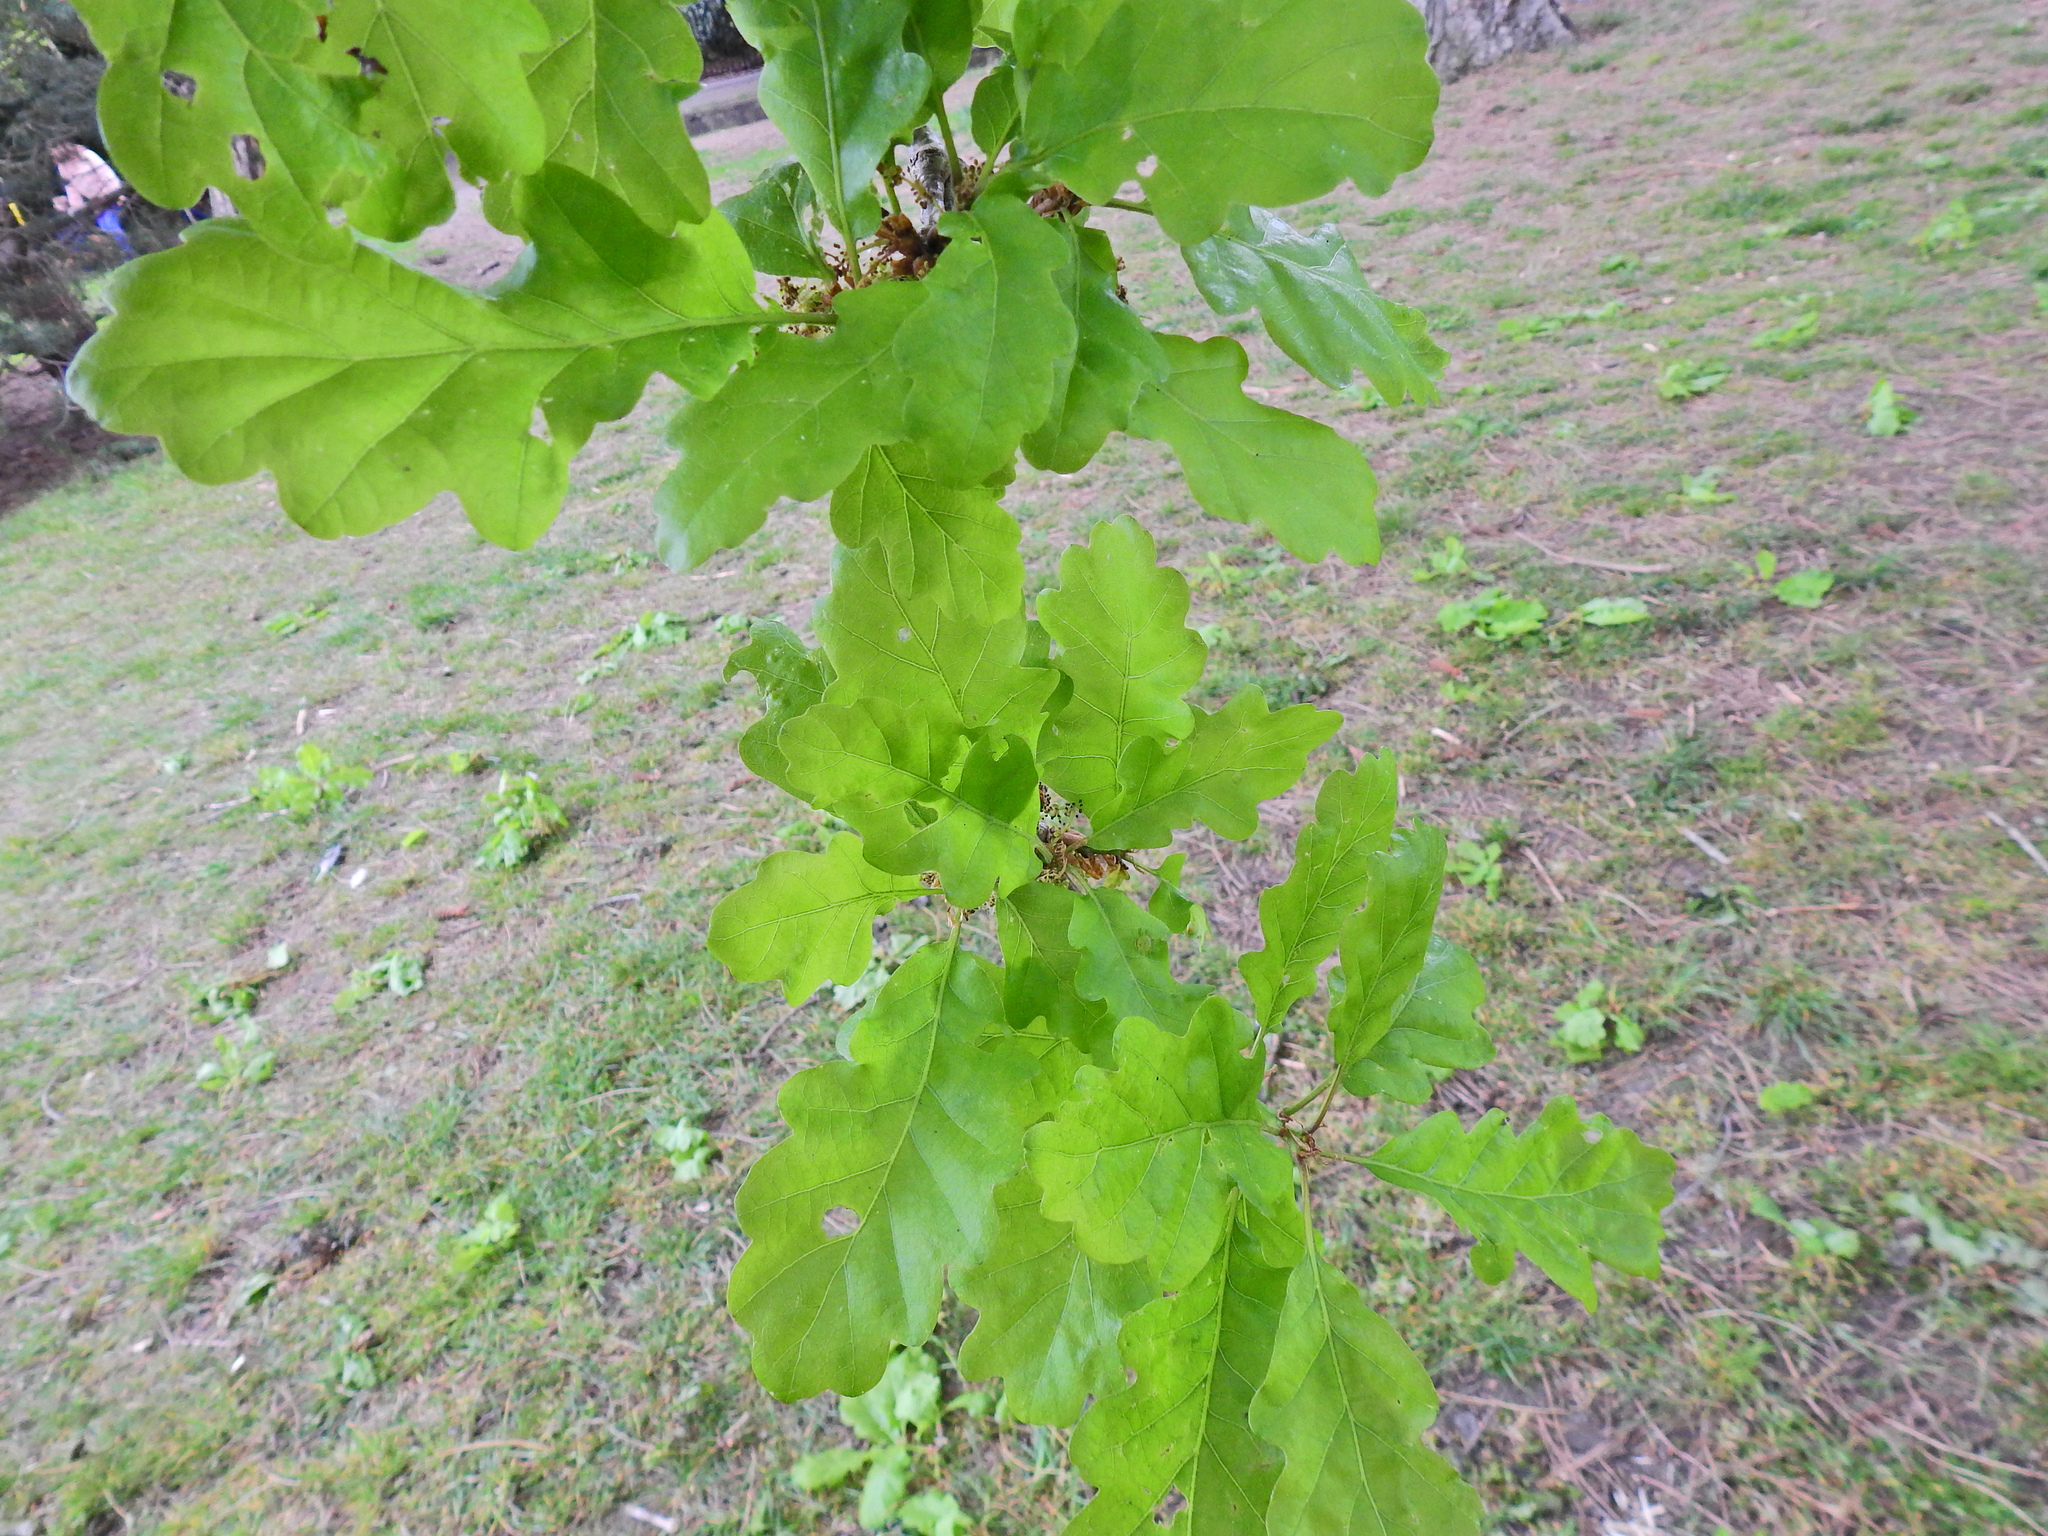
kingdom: Plantae
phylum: Tracheophyta
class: Magnoliopsida
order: Fagales
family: Fagaceae
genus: Quercus
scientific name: Quercus rosacea
